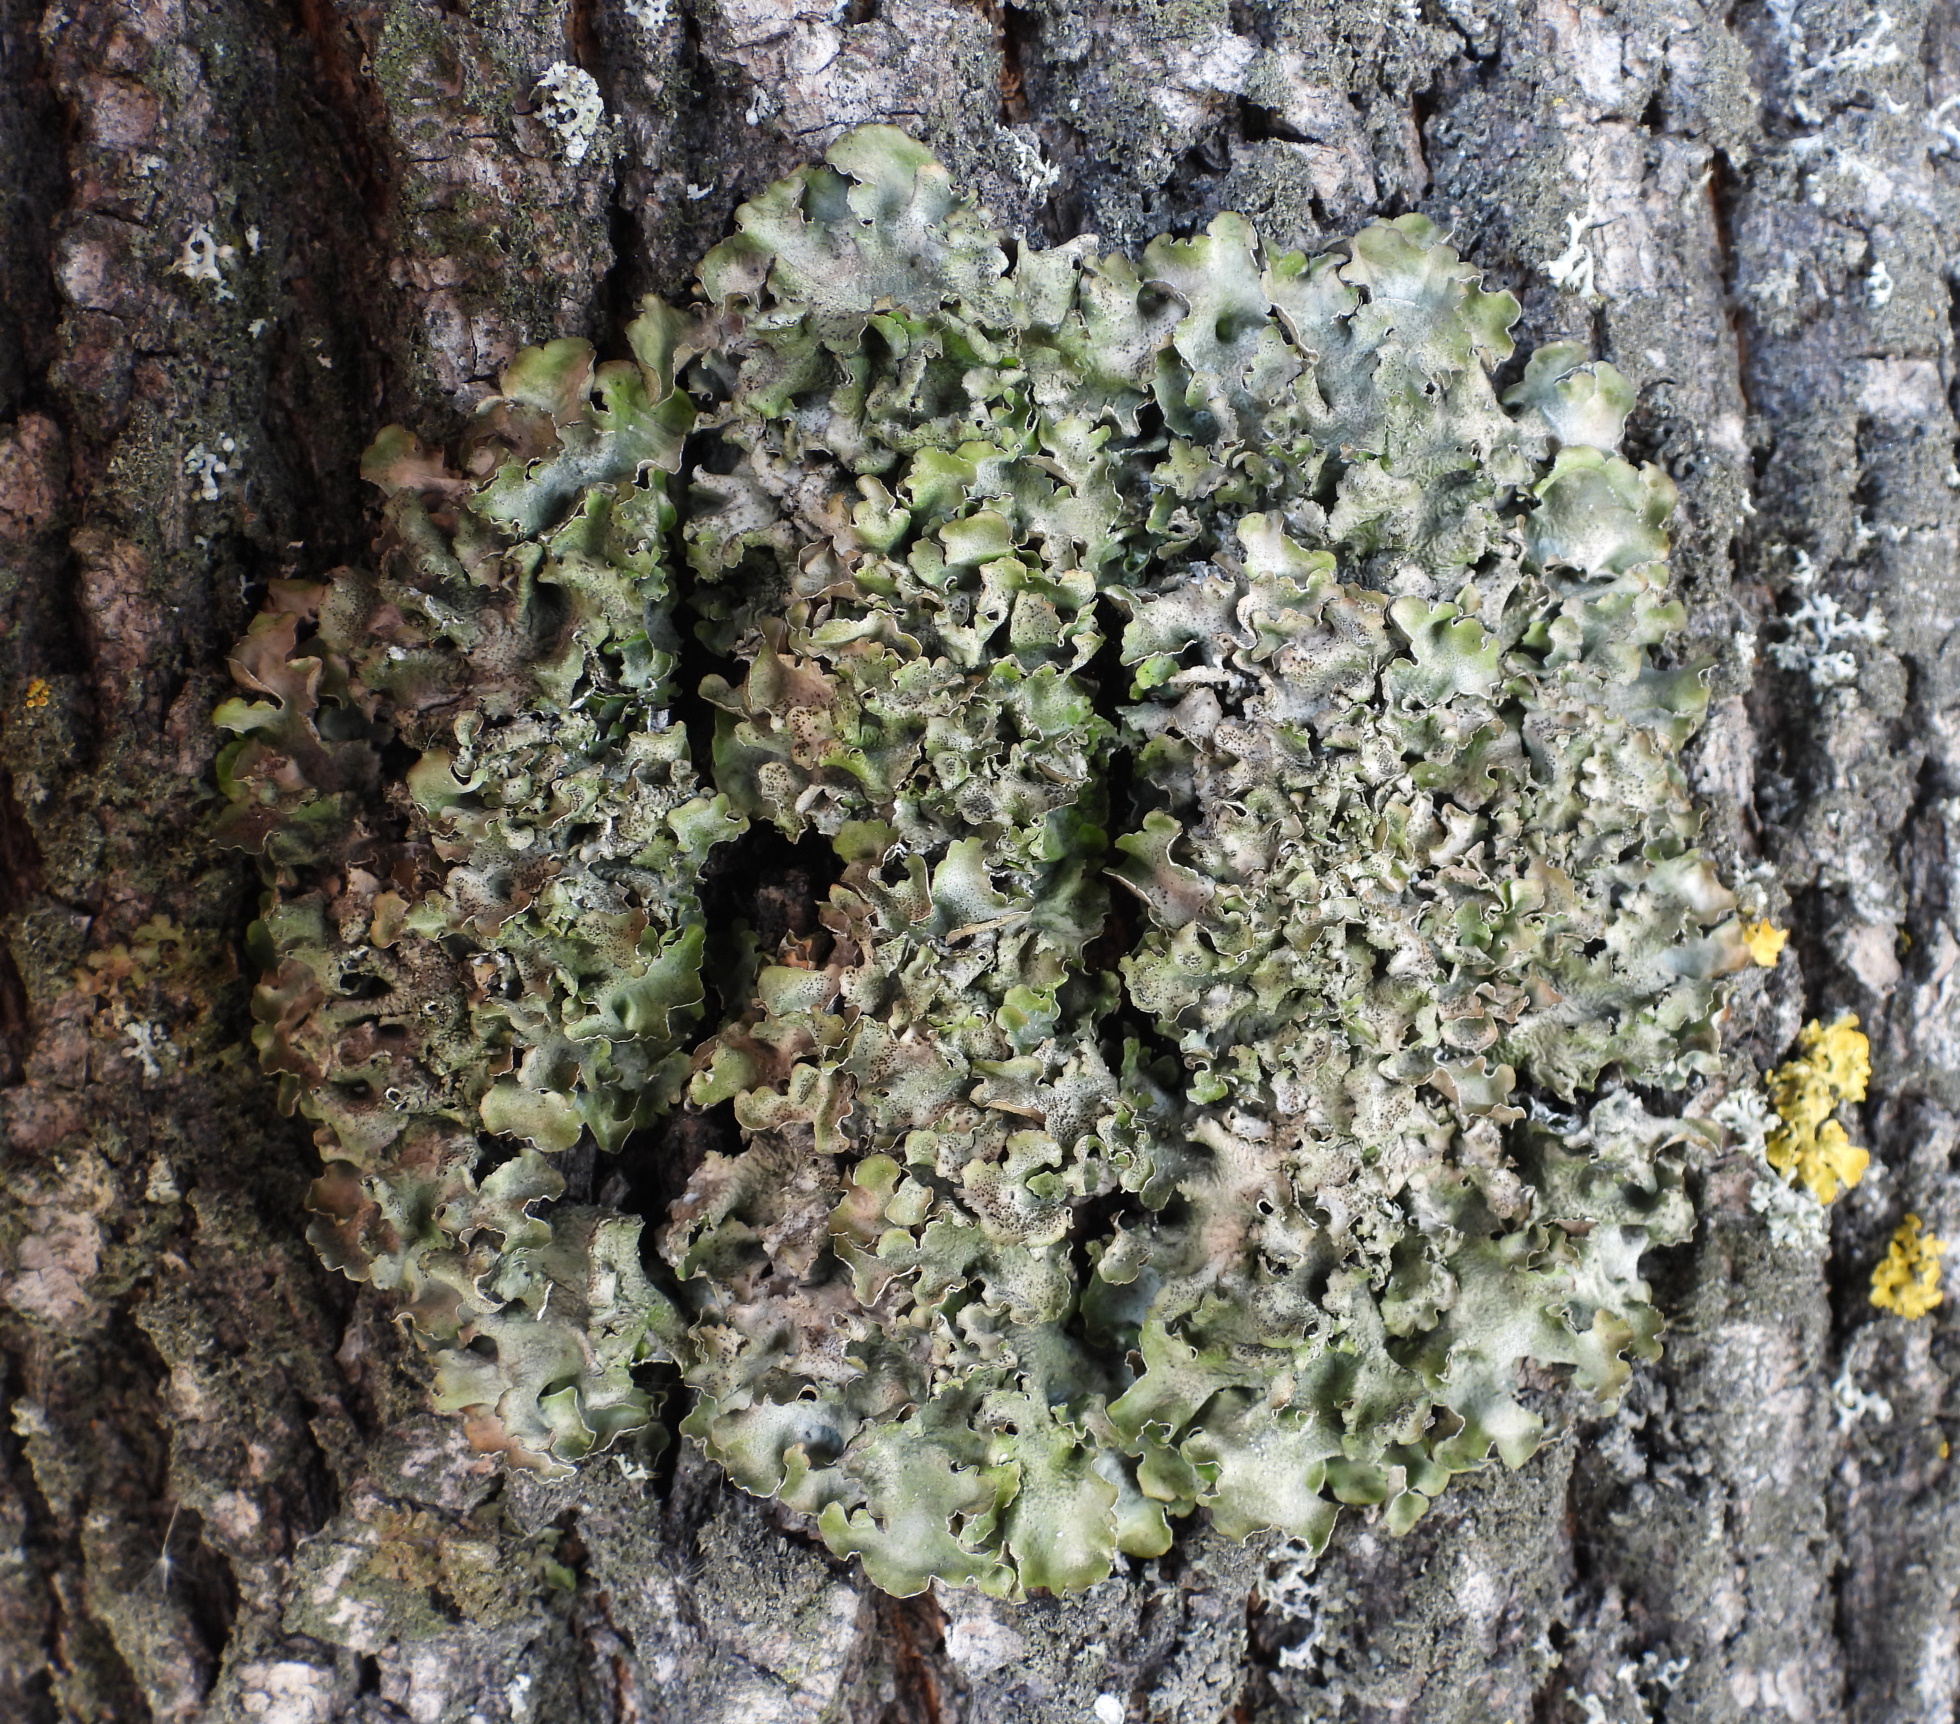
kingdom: Fungi
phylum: Ascomycota
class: Lecanoromycetes
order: Lecanorales
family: Parmeliaceae
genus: Pleurosticta
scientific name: Pleurosticta acetabulum
